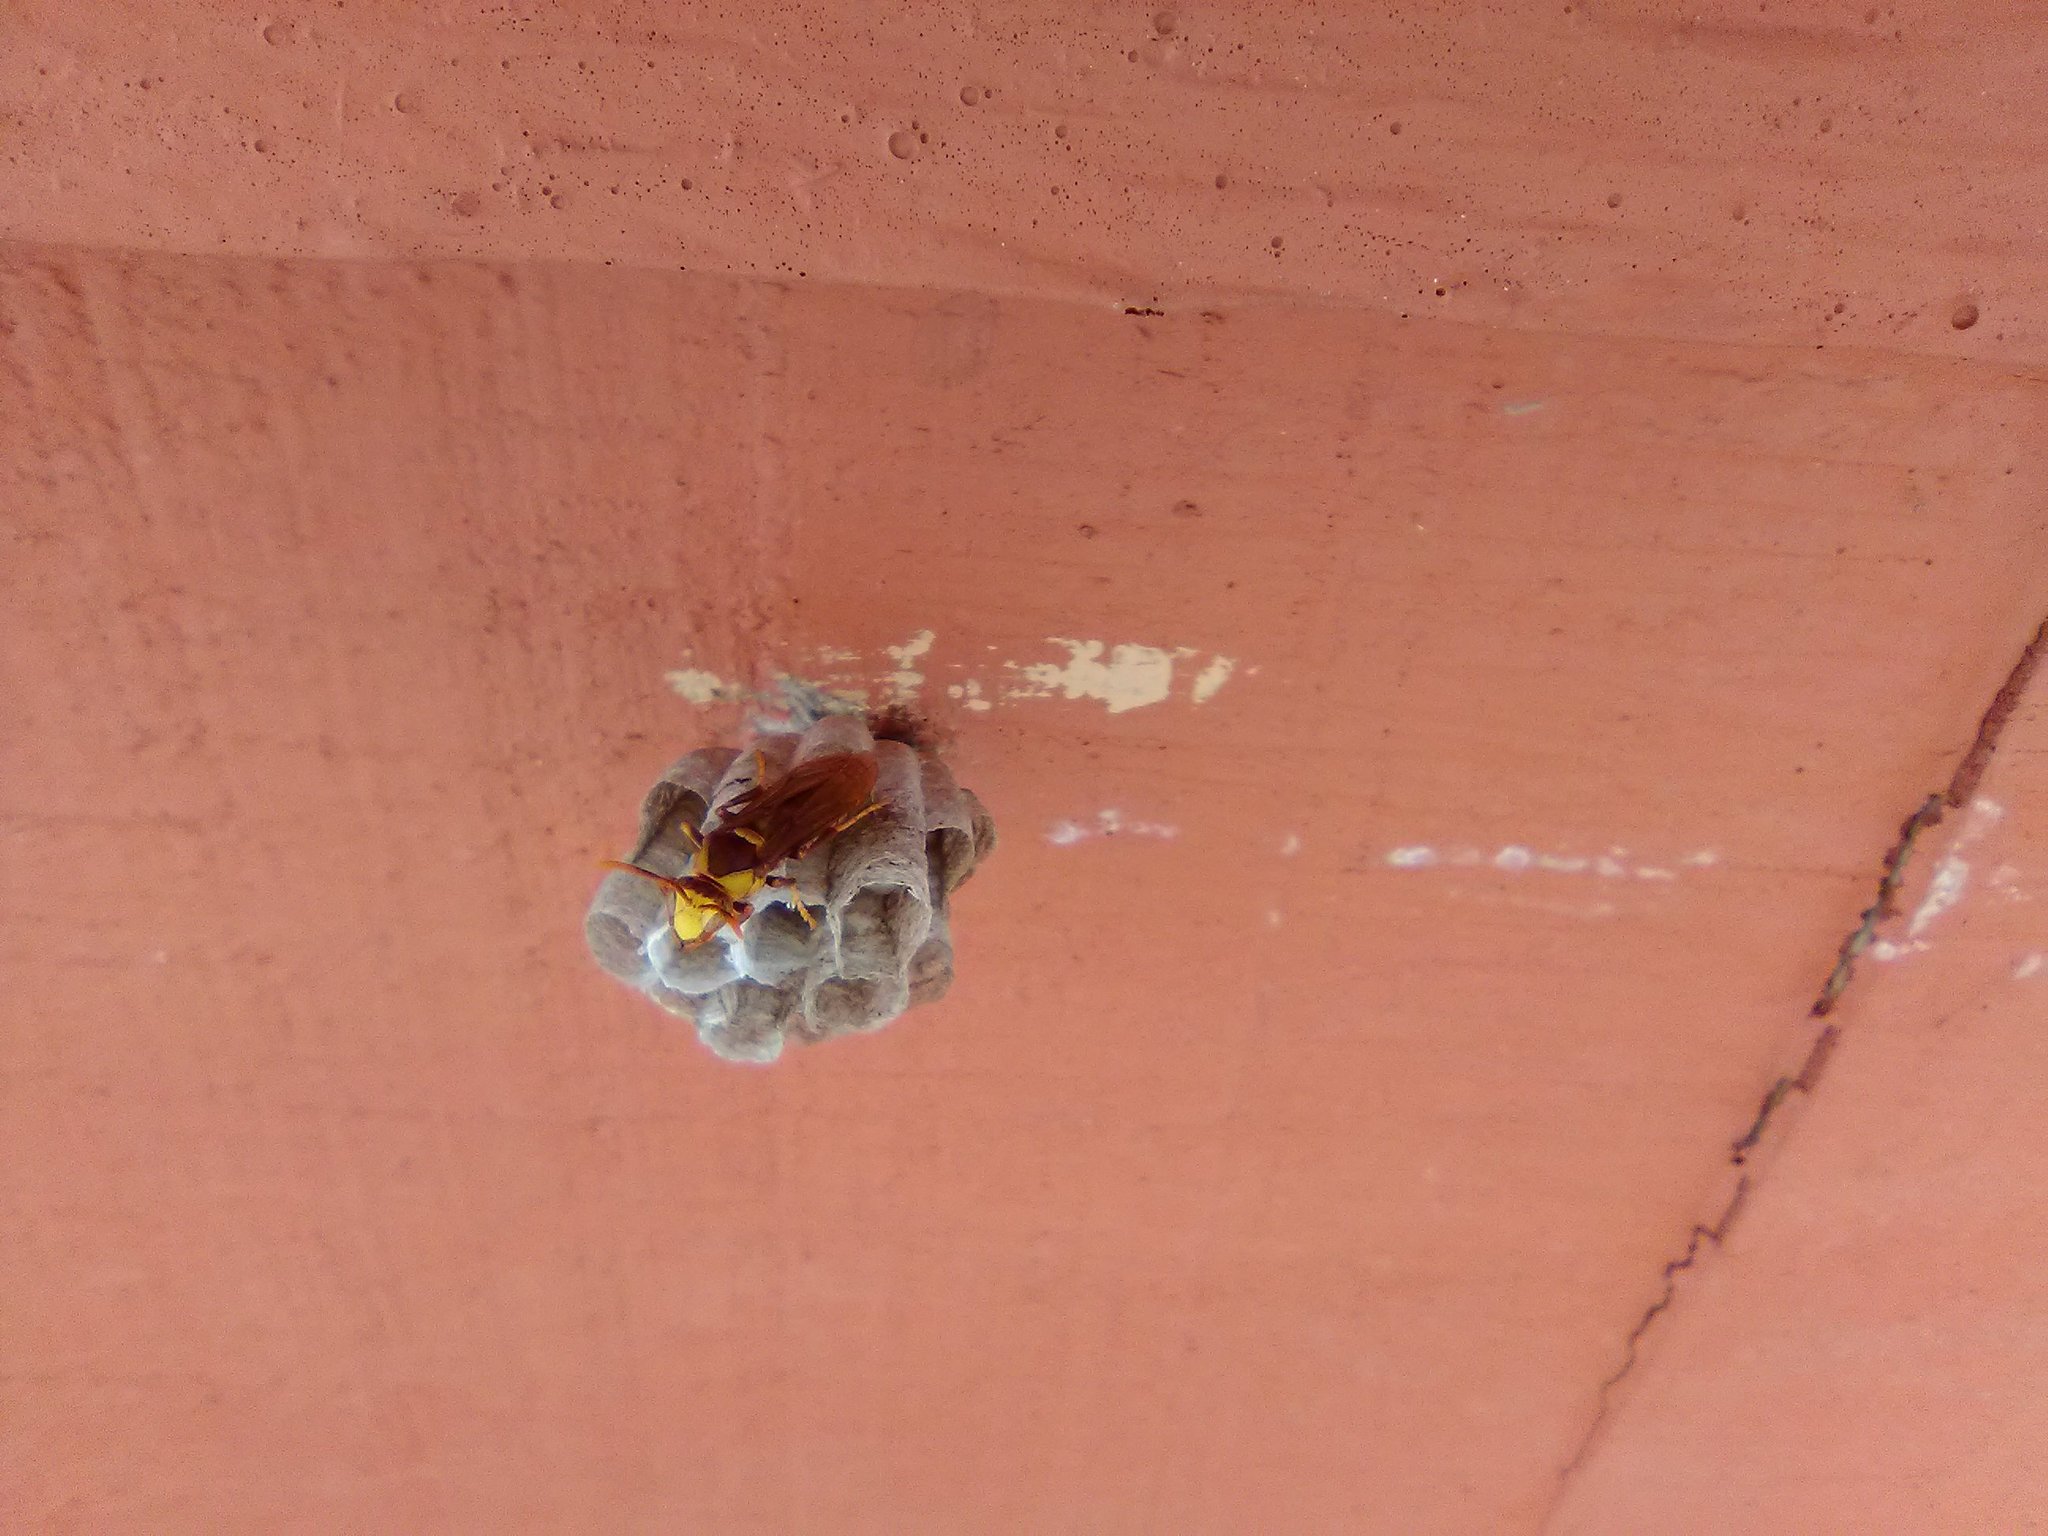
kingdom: Animalia
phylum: Arthropoda
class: Insecta
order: Hymenoptera
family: Eumenidae
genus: Polistes
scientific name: Polistes major
